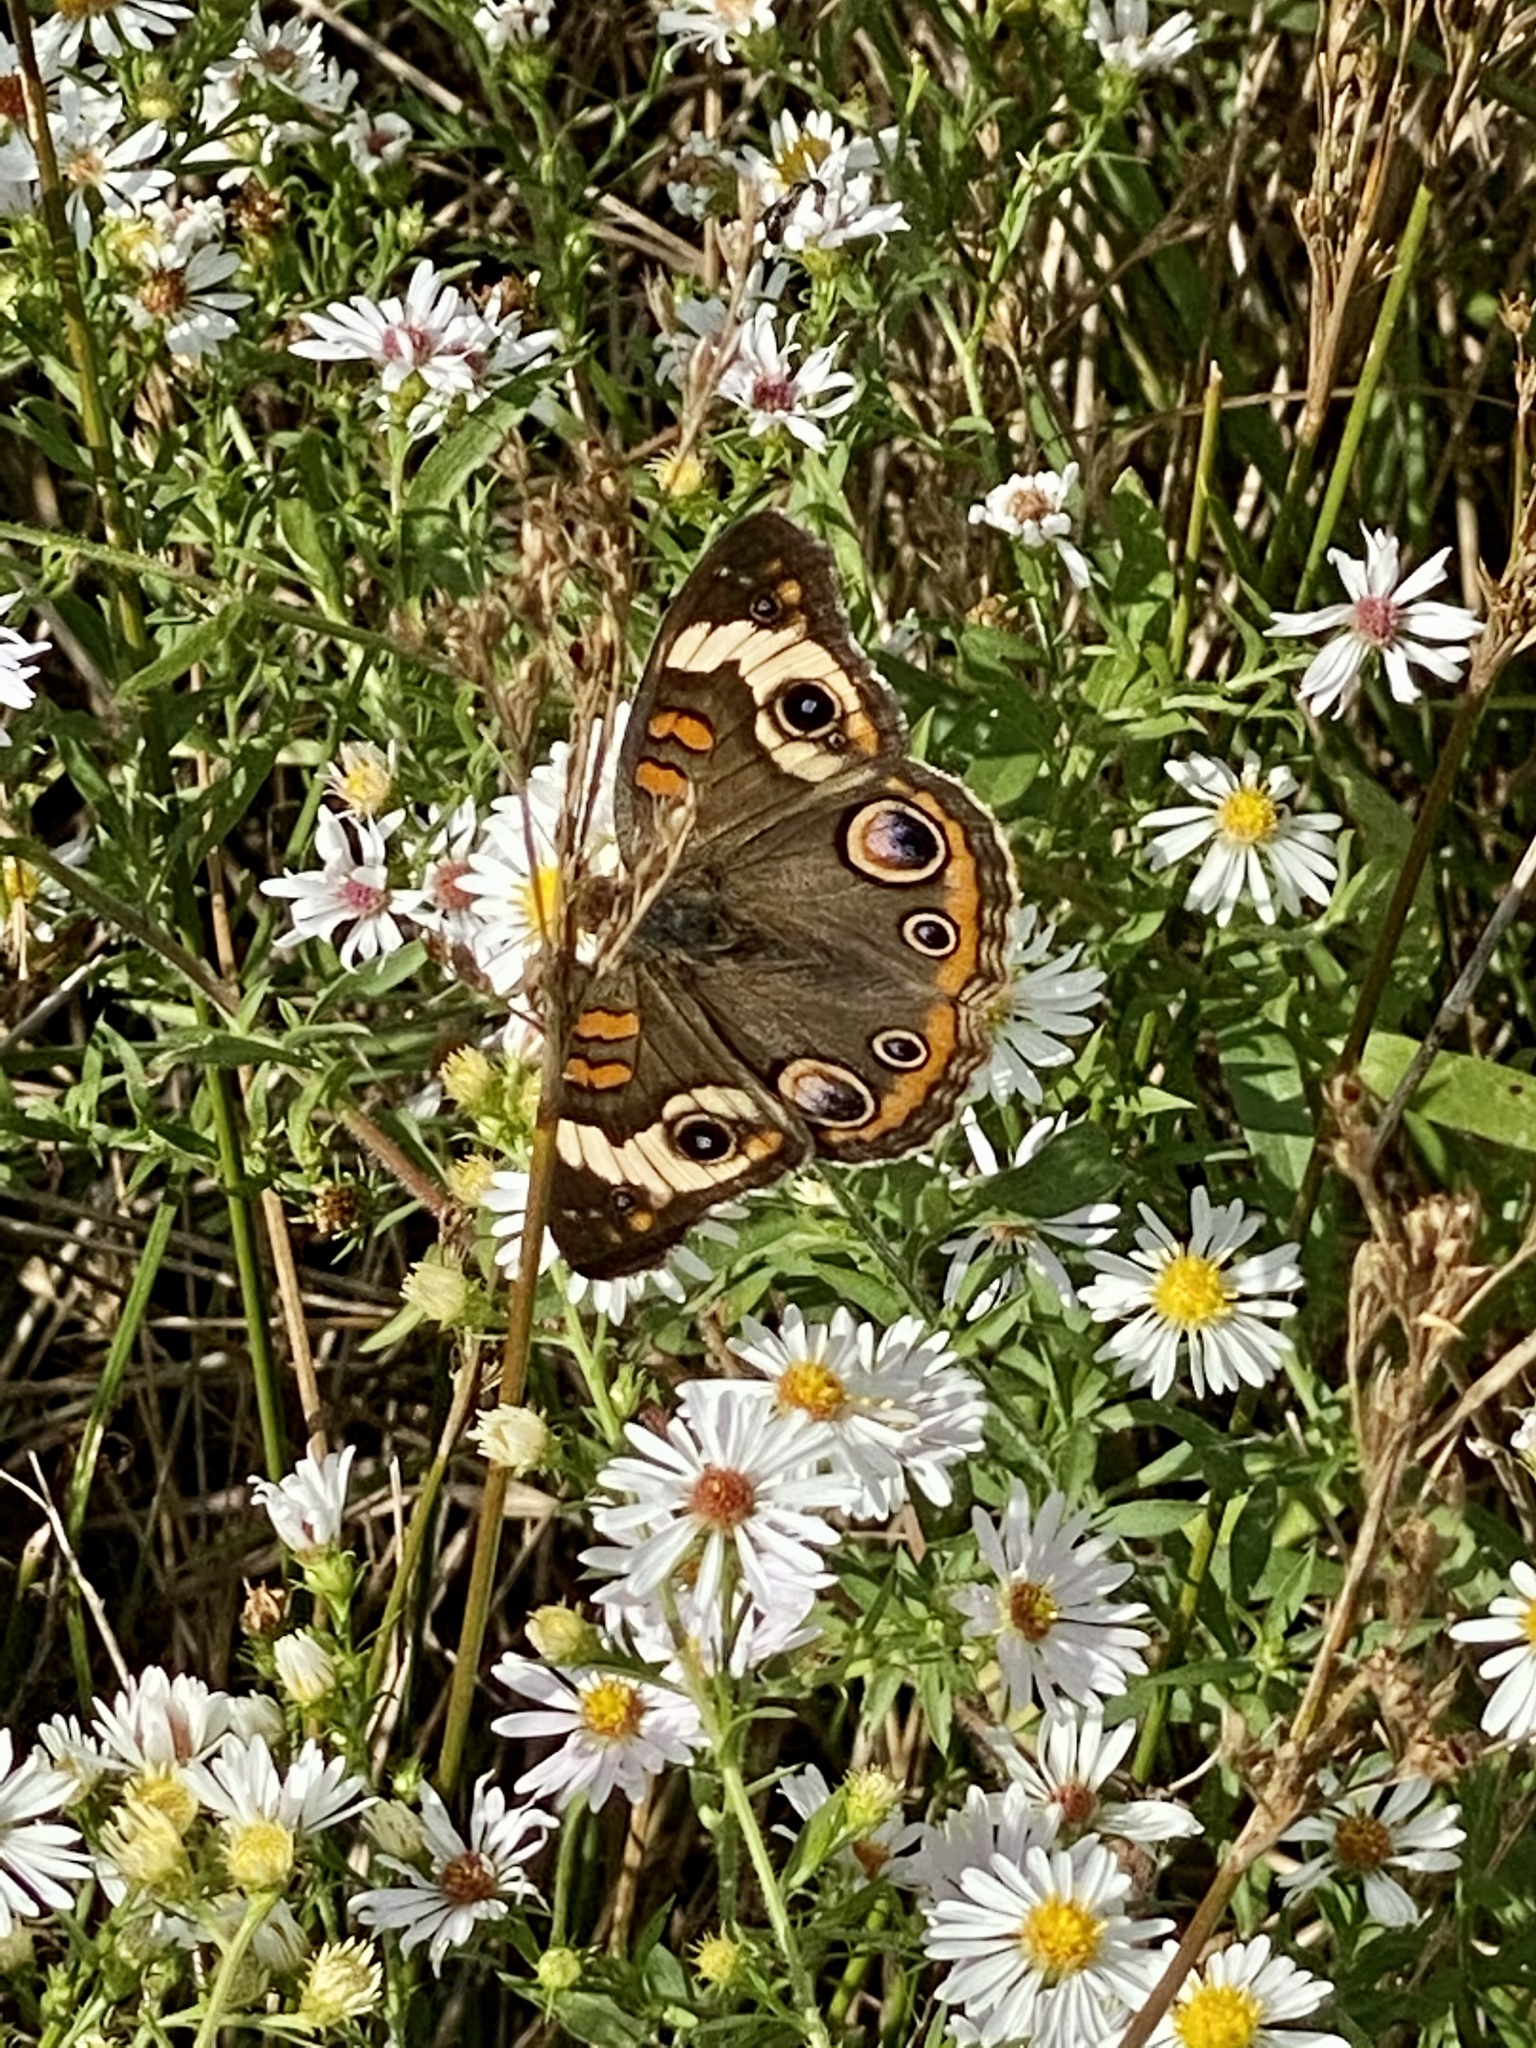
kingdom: Animalia
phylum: Arthropoda
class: Insecta
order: Lepidoptera
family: Nymphalidae
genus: Junonia
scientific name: Junonia coenia
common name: Common buckeye
